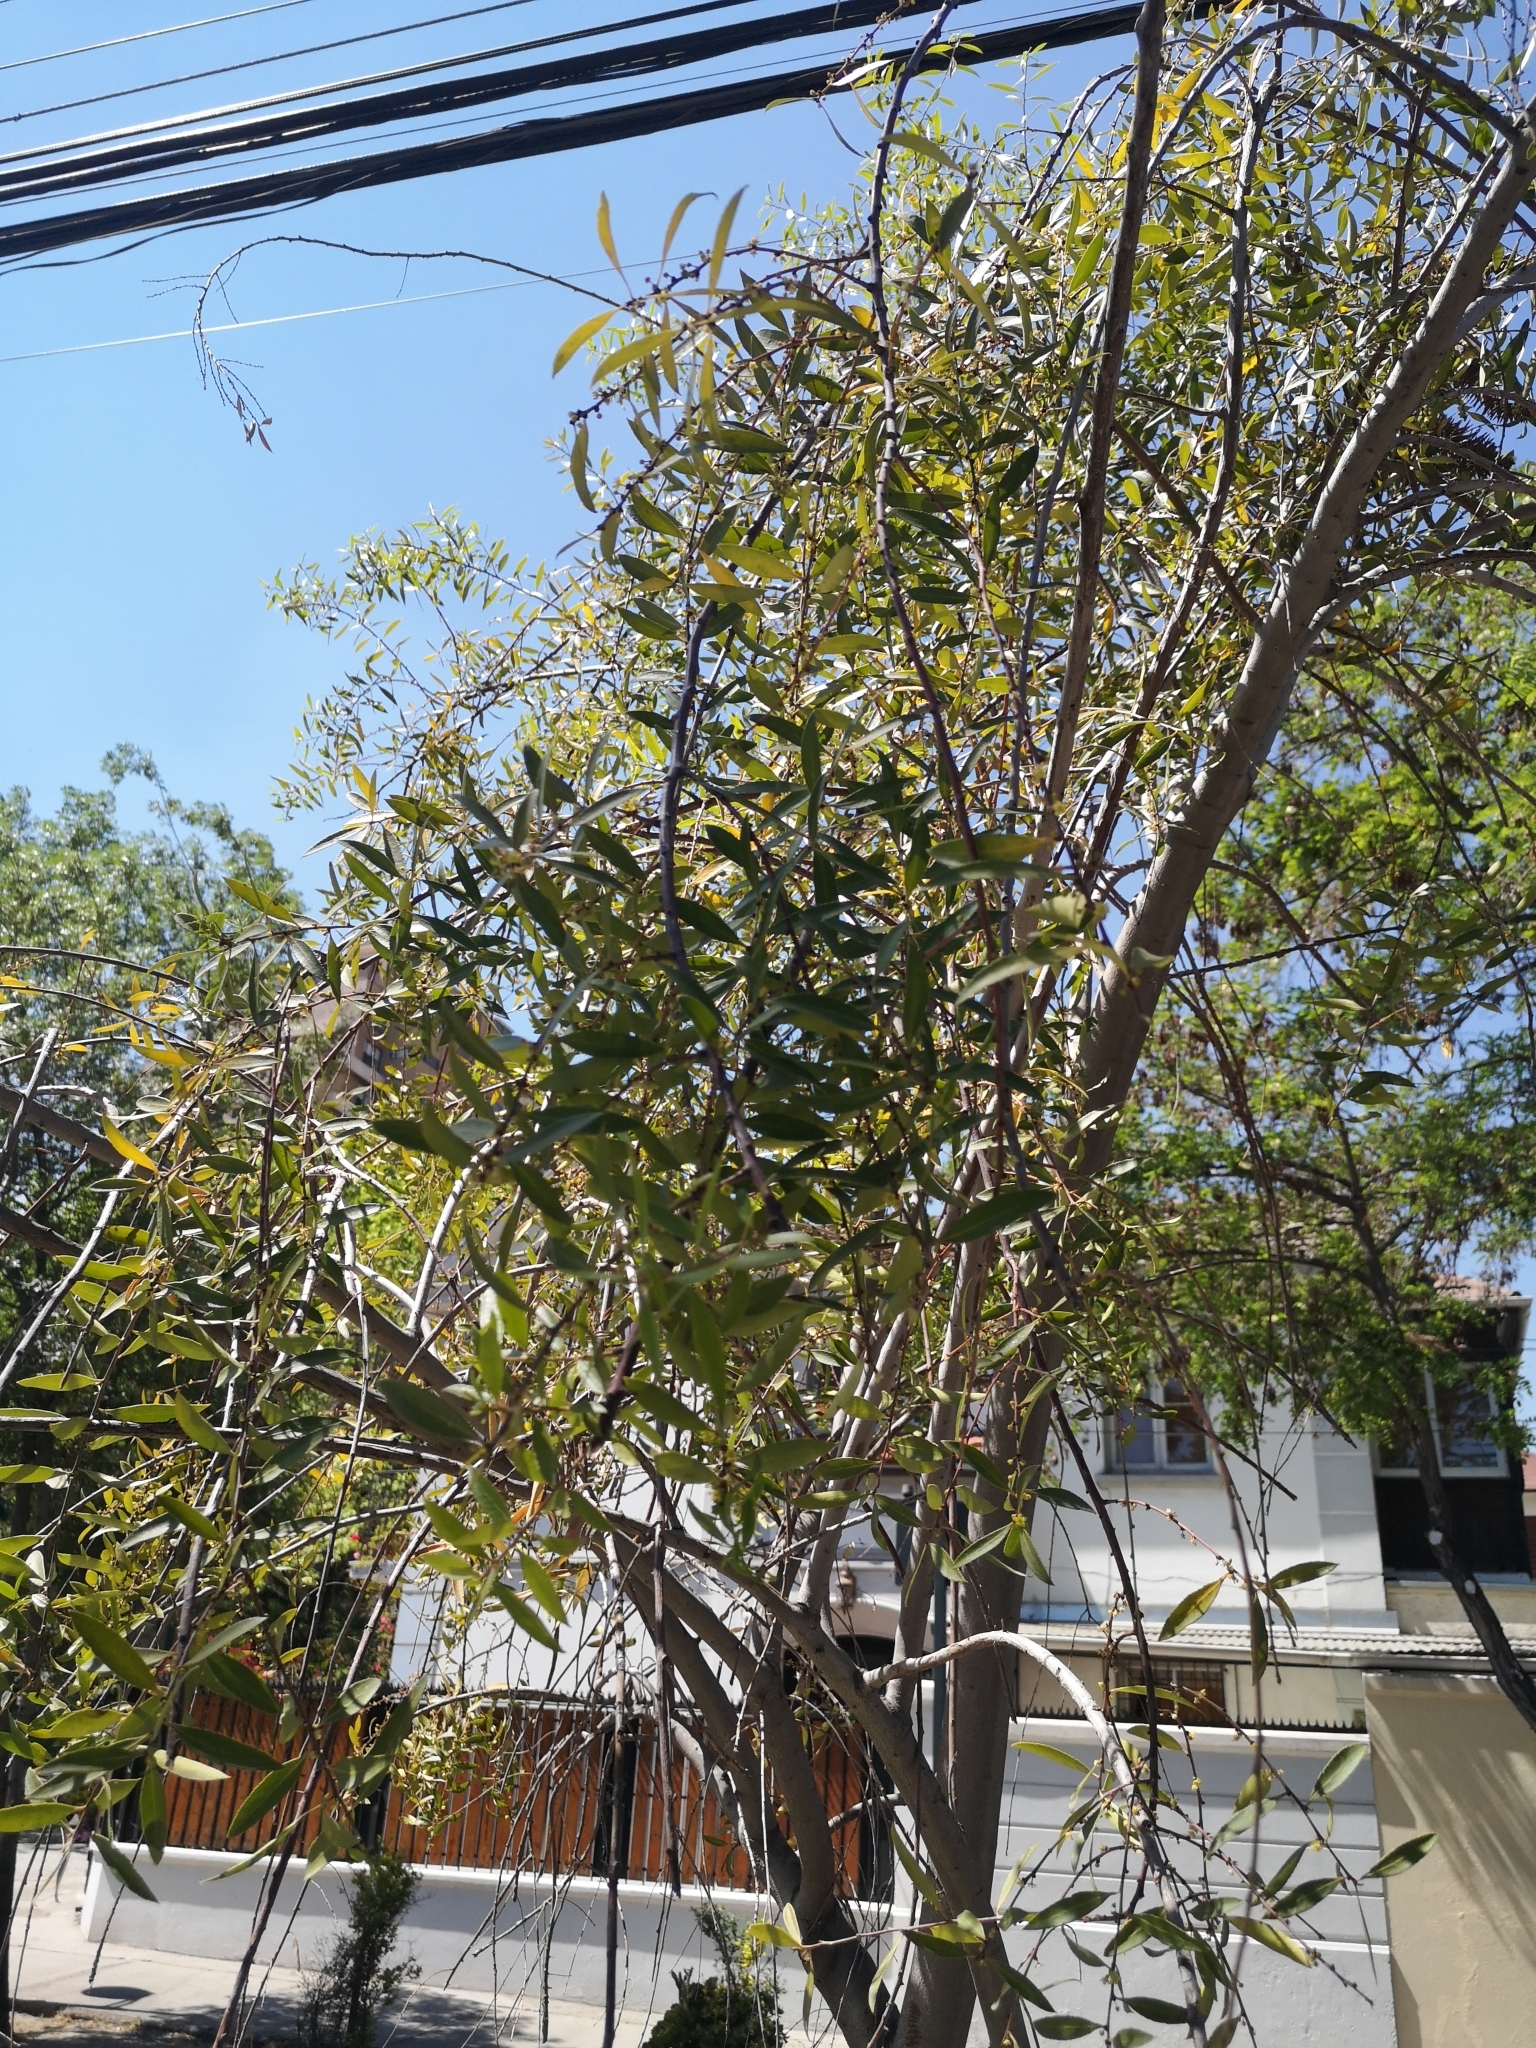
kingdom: Plantae
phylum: Tracheophyta
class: Magnoliopsida
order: Celastrales
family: Celastraceae
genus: Maytenus
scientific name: Maytenus boaria
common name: Mayten
